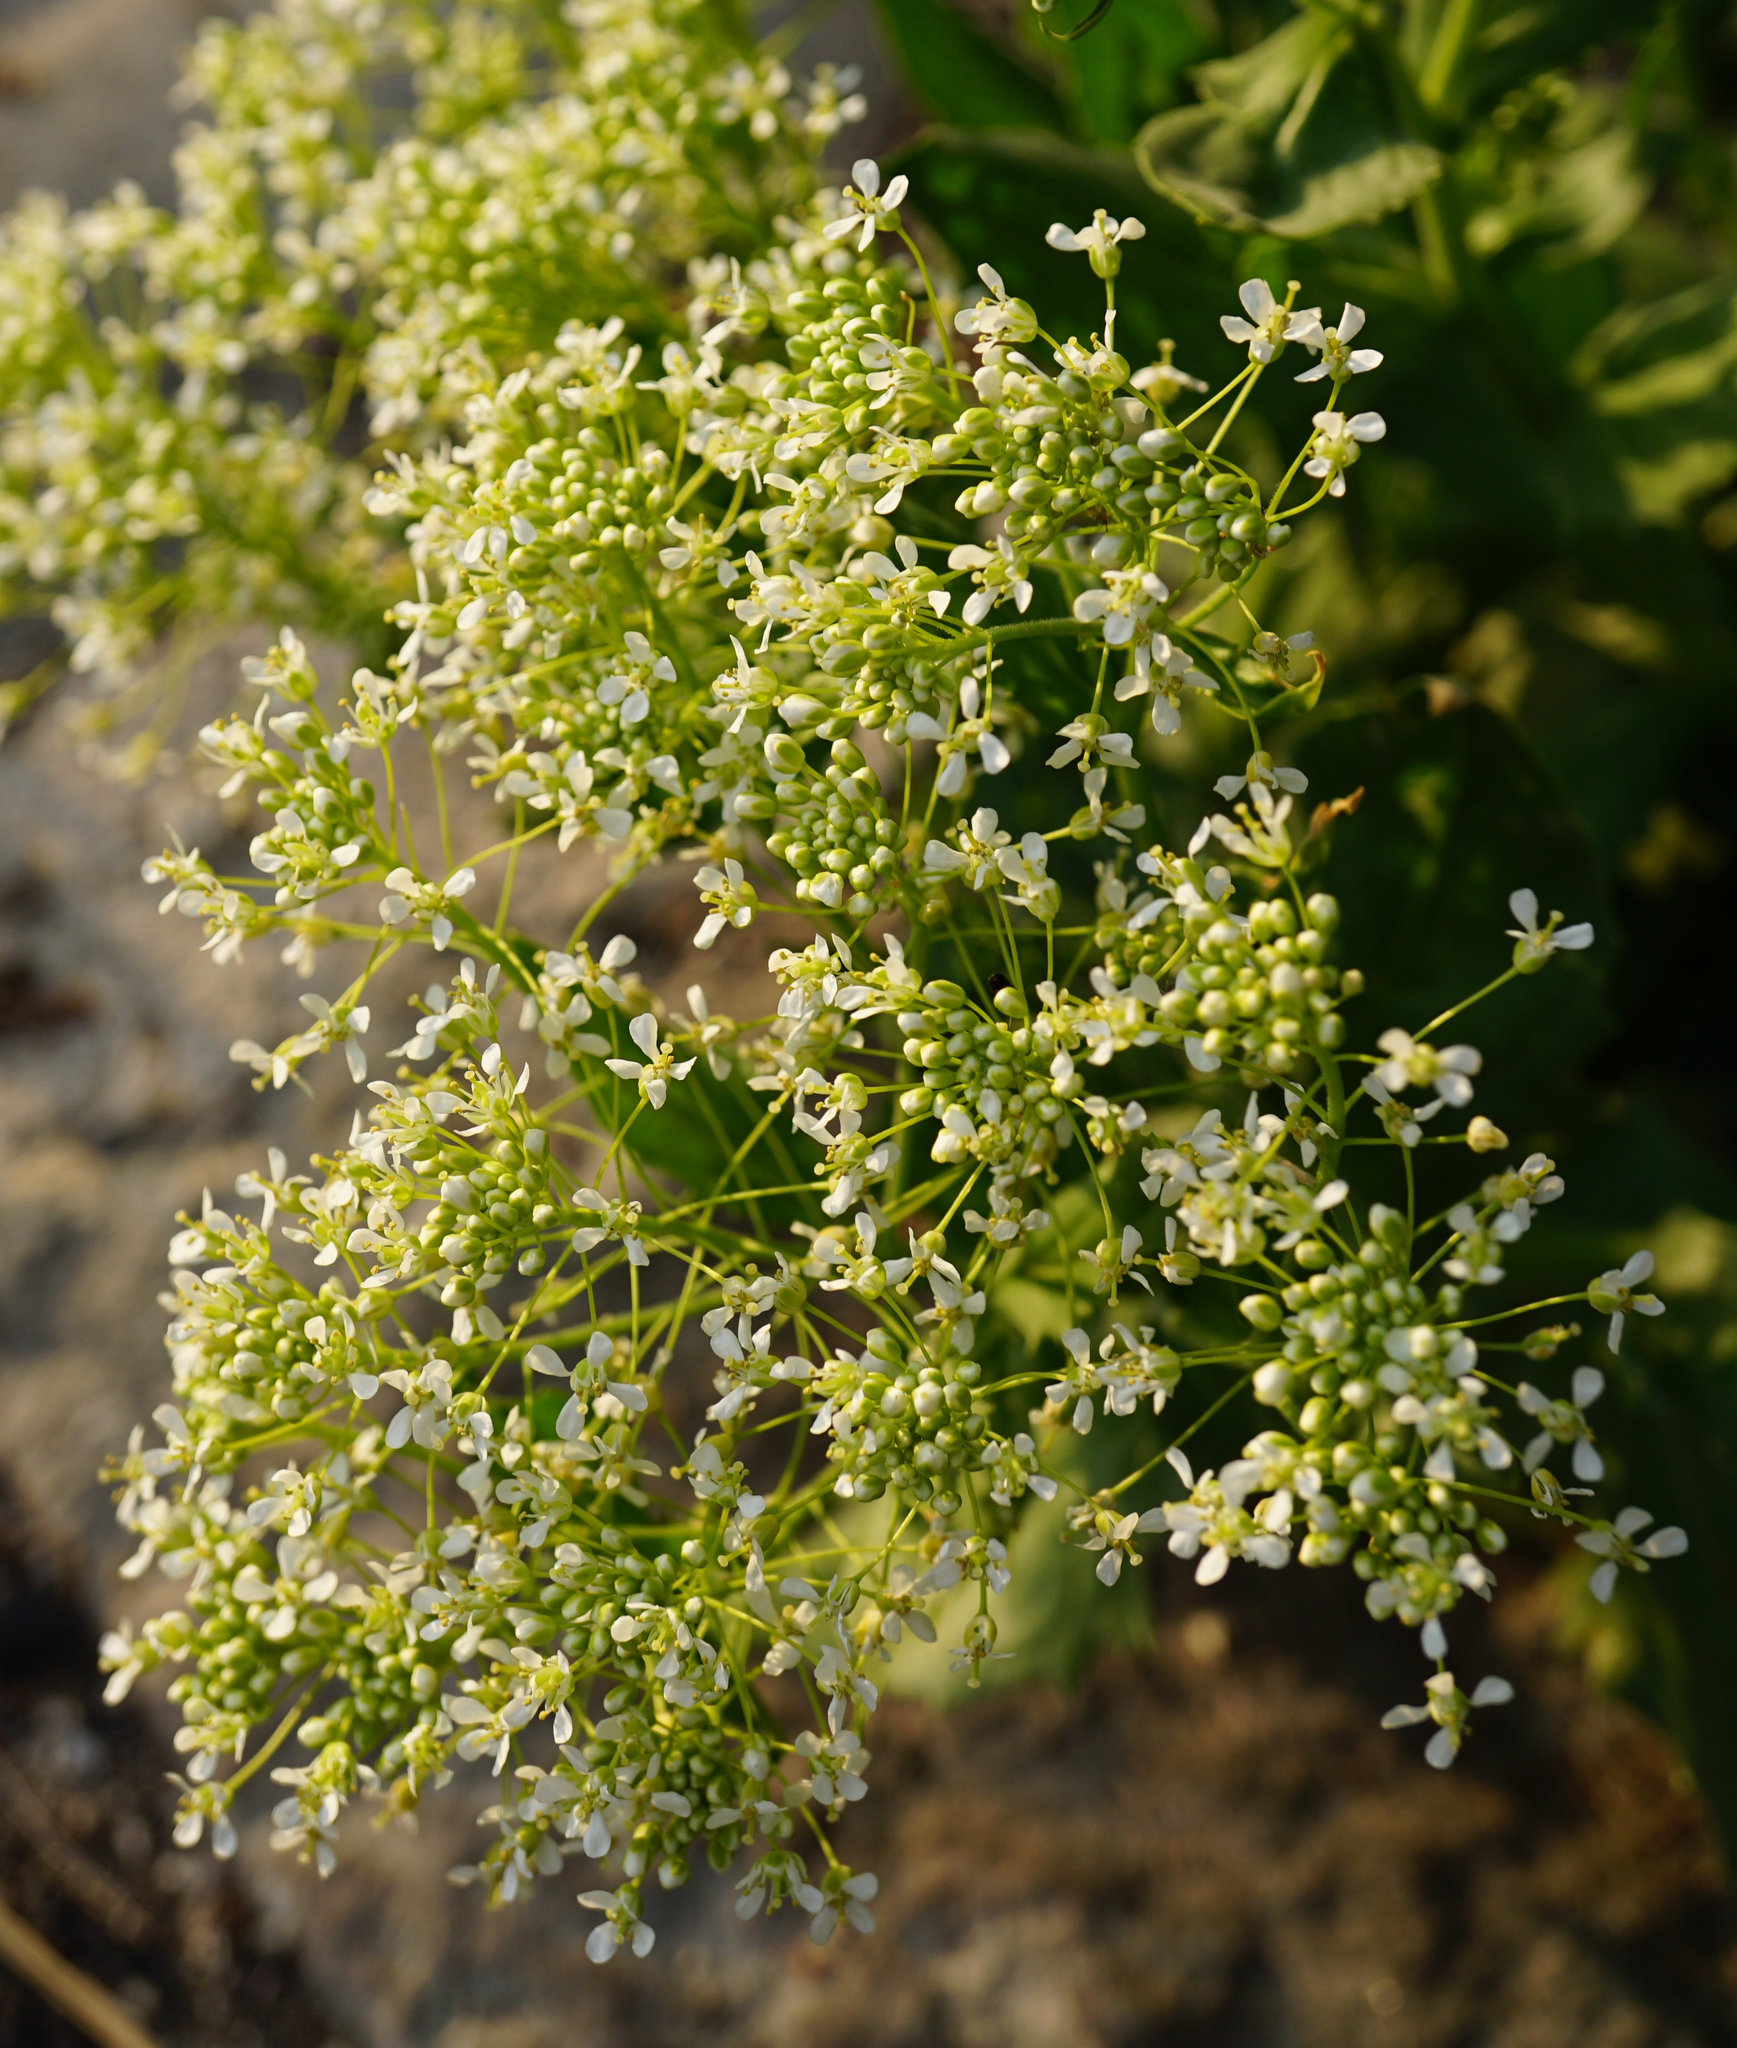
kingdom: Plantae
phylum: Tracheophyta
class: Magnoliopsida
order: Brassicales
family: Brassicaceae
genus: Lepidium
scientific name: Lepidium draba
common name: Hoary cress
